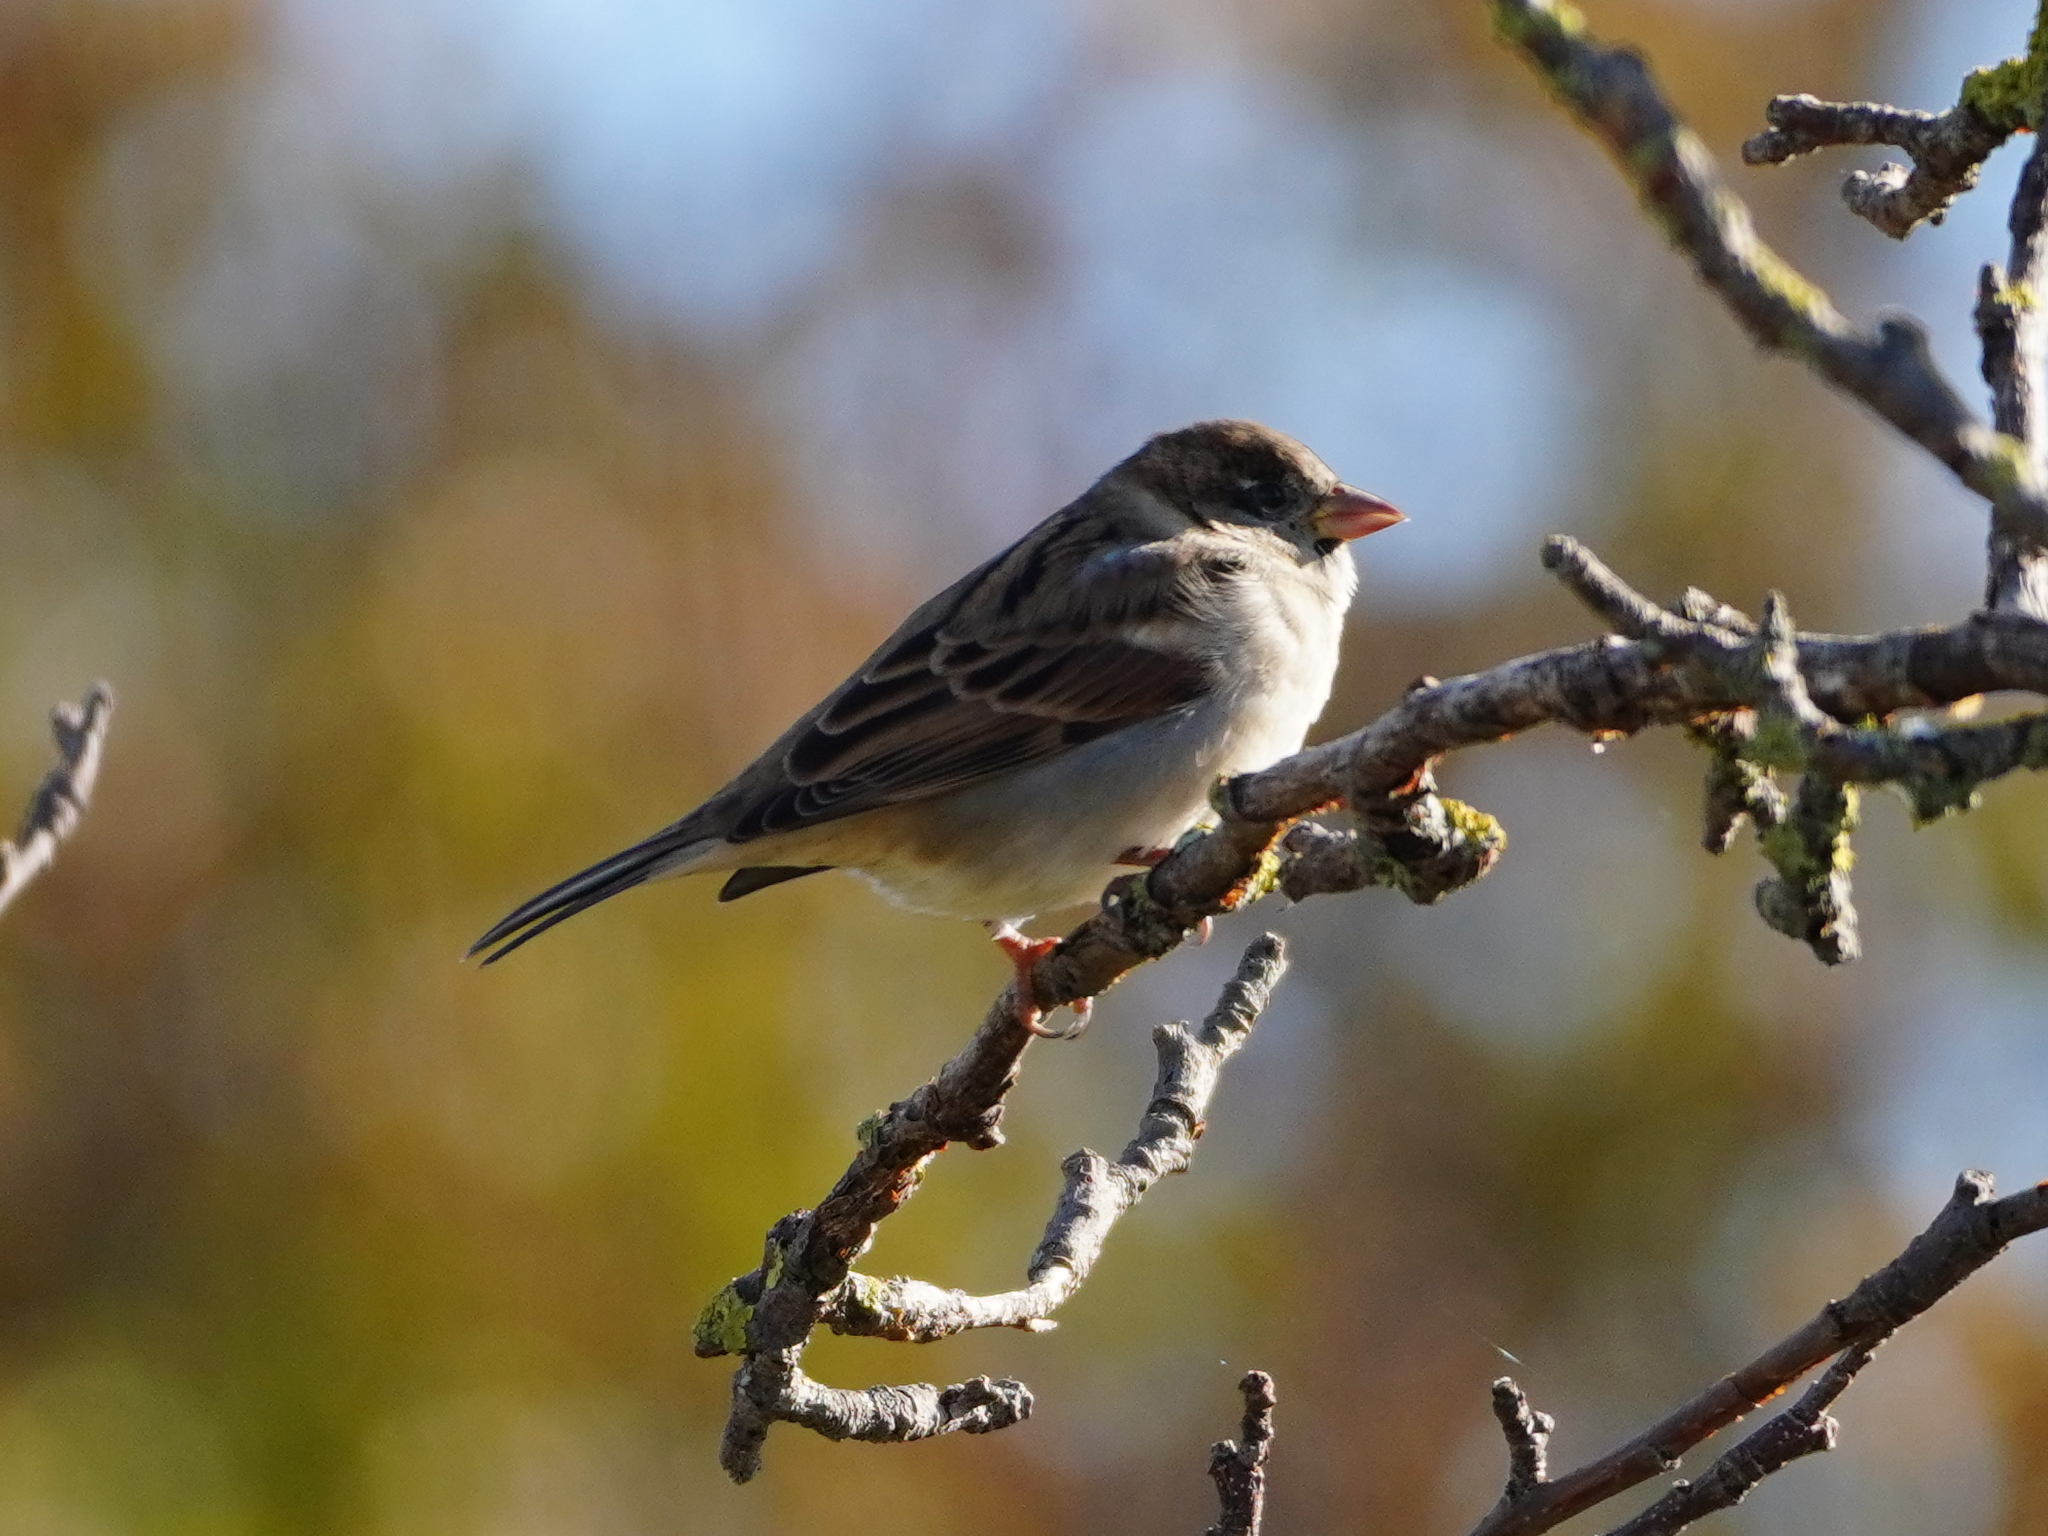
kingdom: Animalia
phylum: Chordata
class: Aves
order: Passeriformes
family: Passeridae
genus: Passer
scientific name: Passer domesticus
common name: House sparrow
